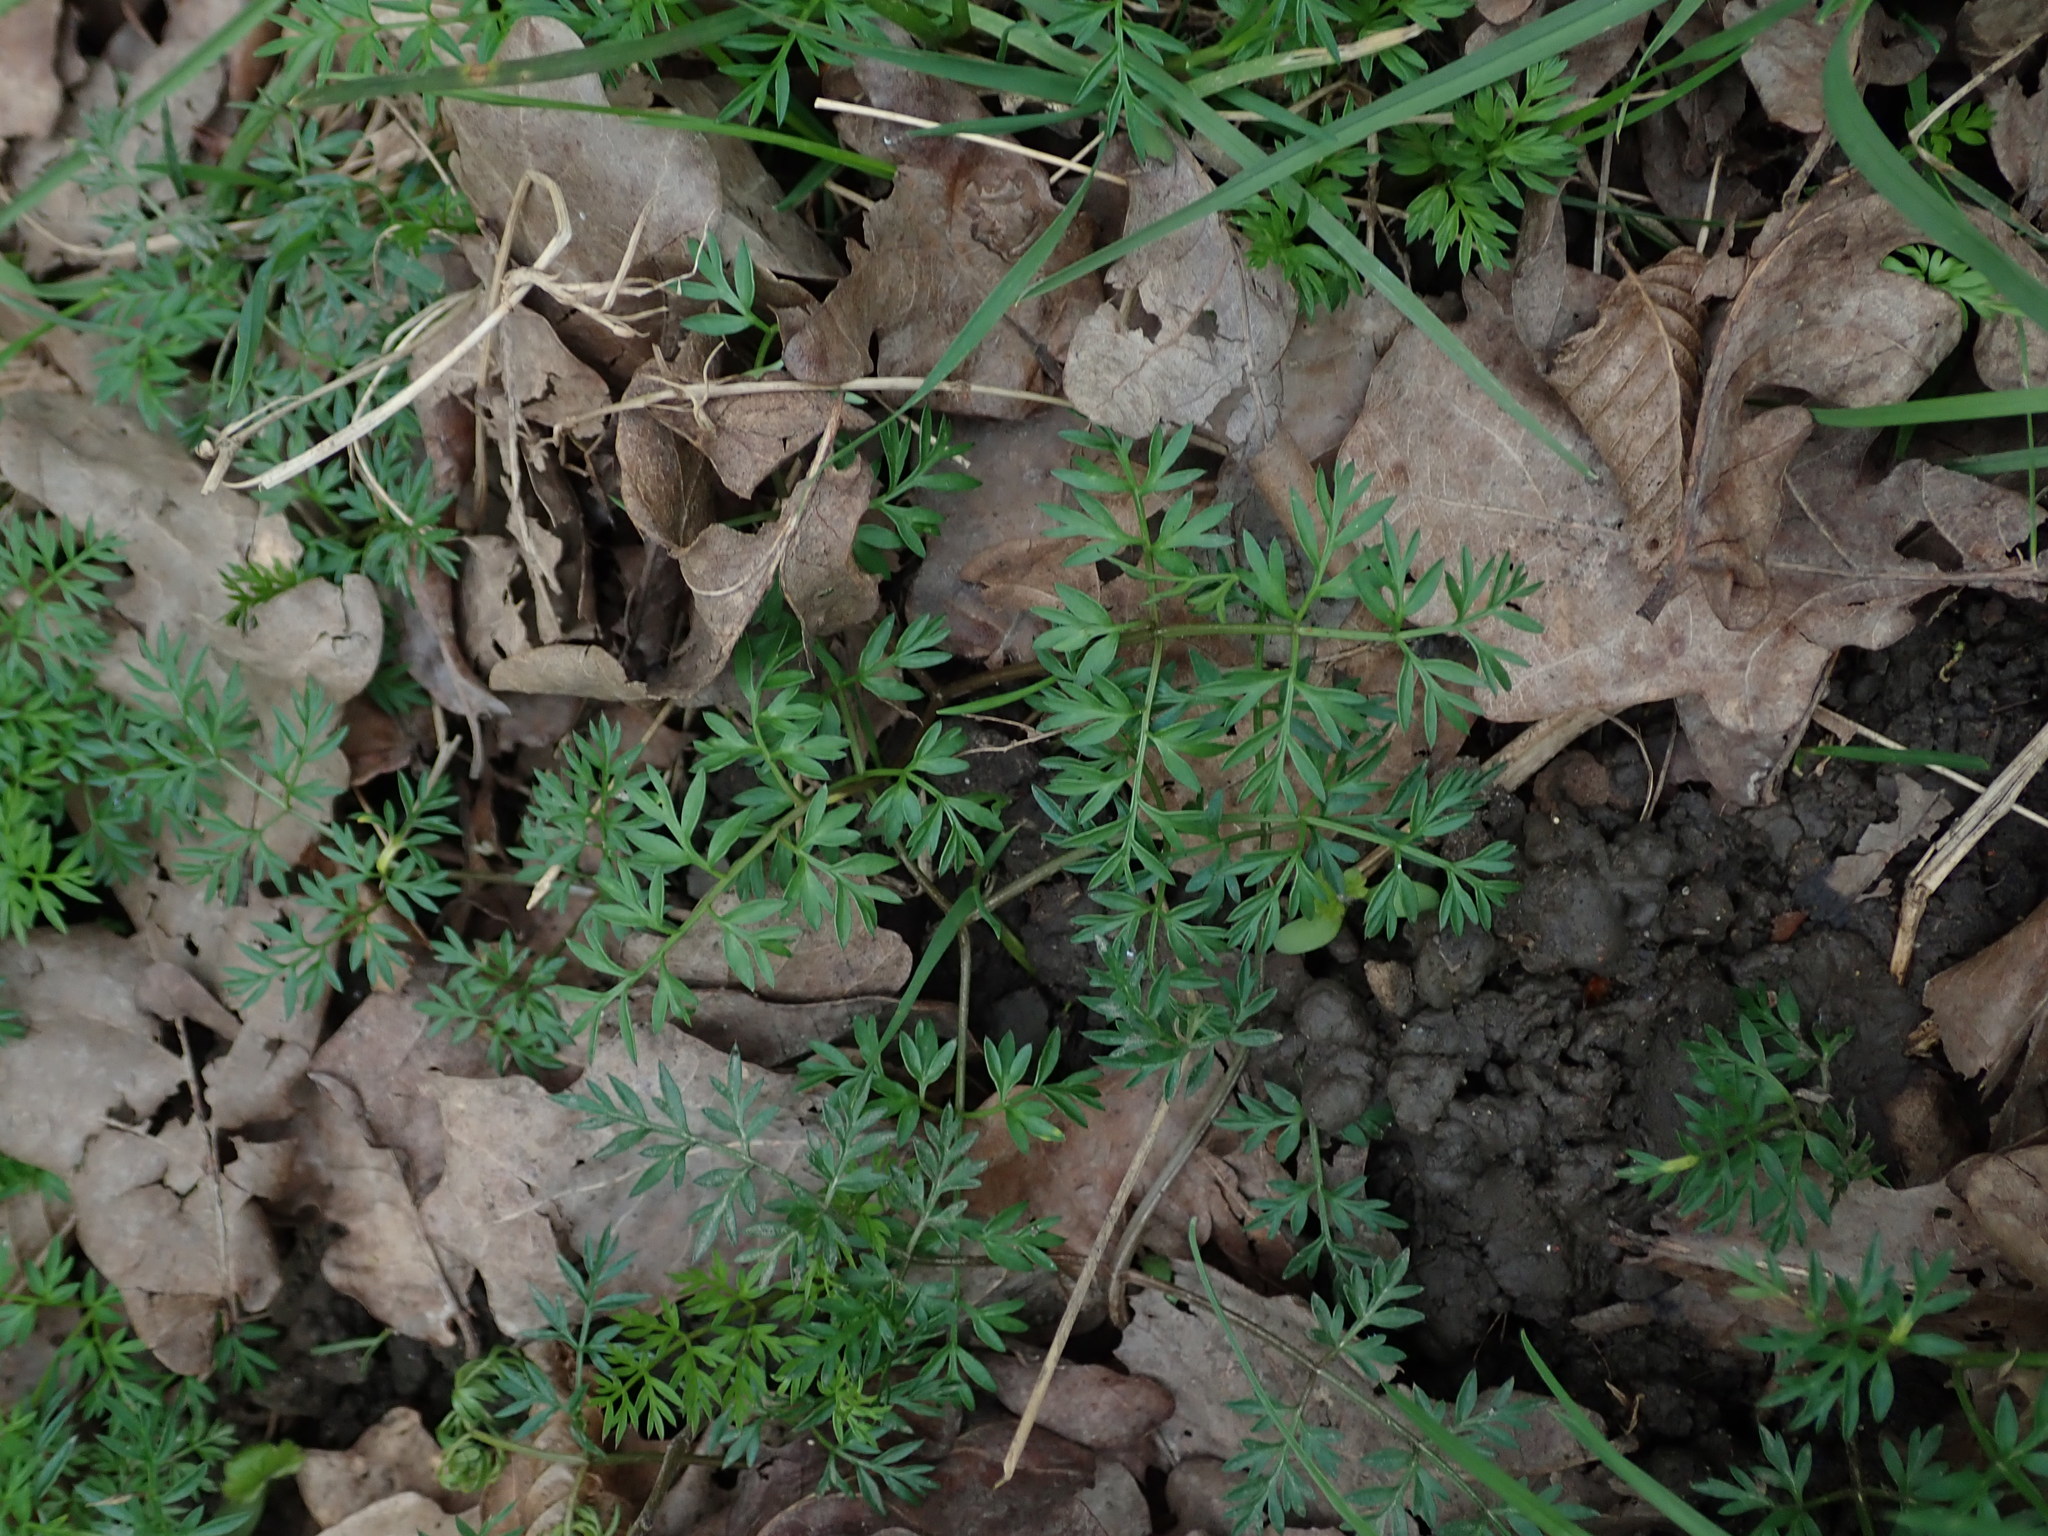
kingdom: Plantae
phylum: Tracheophyta
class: Magnoliopsida
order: Apiales
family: Apiaceae
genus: Conopodium
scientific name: Conopodium majus
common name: Pignut
